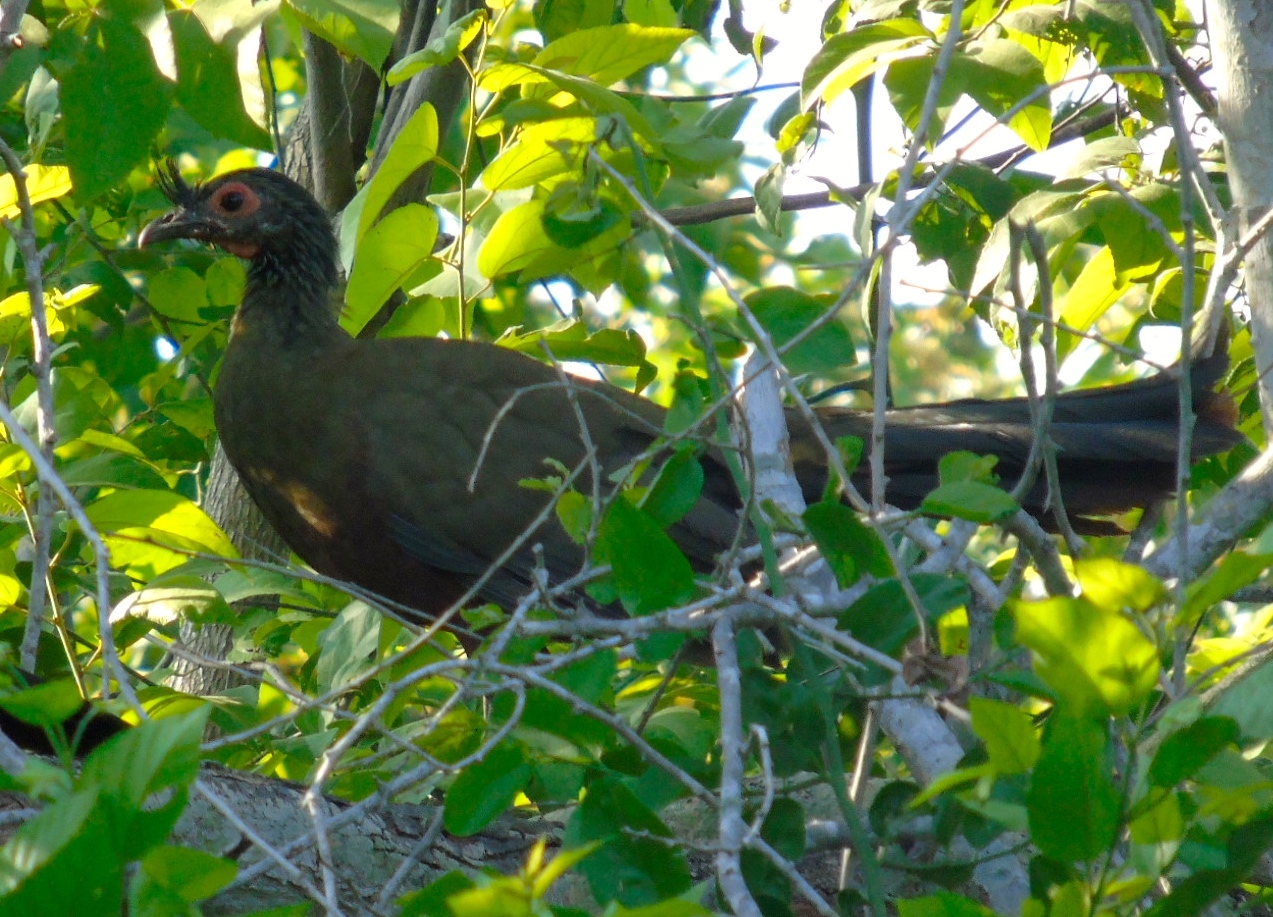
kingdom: Animalia
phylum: Chordata
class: Aves
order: Galliformes
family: Cracidae
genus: Ortalis
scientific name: Ortalis wagleri
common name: Rufous-bellied chachalaca
